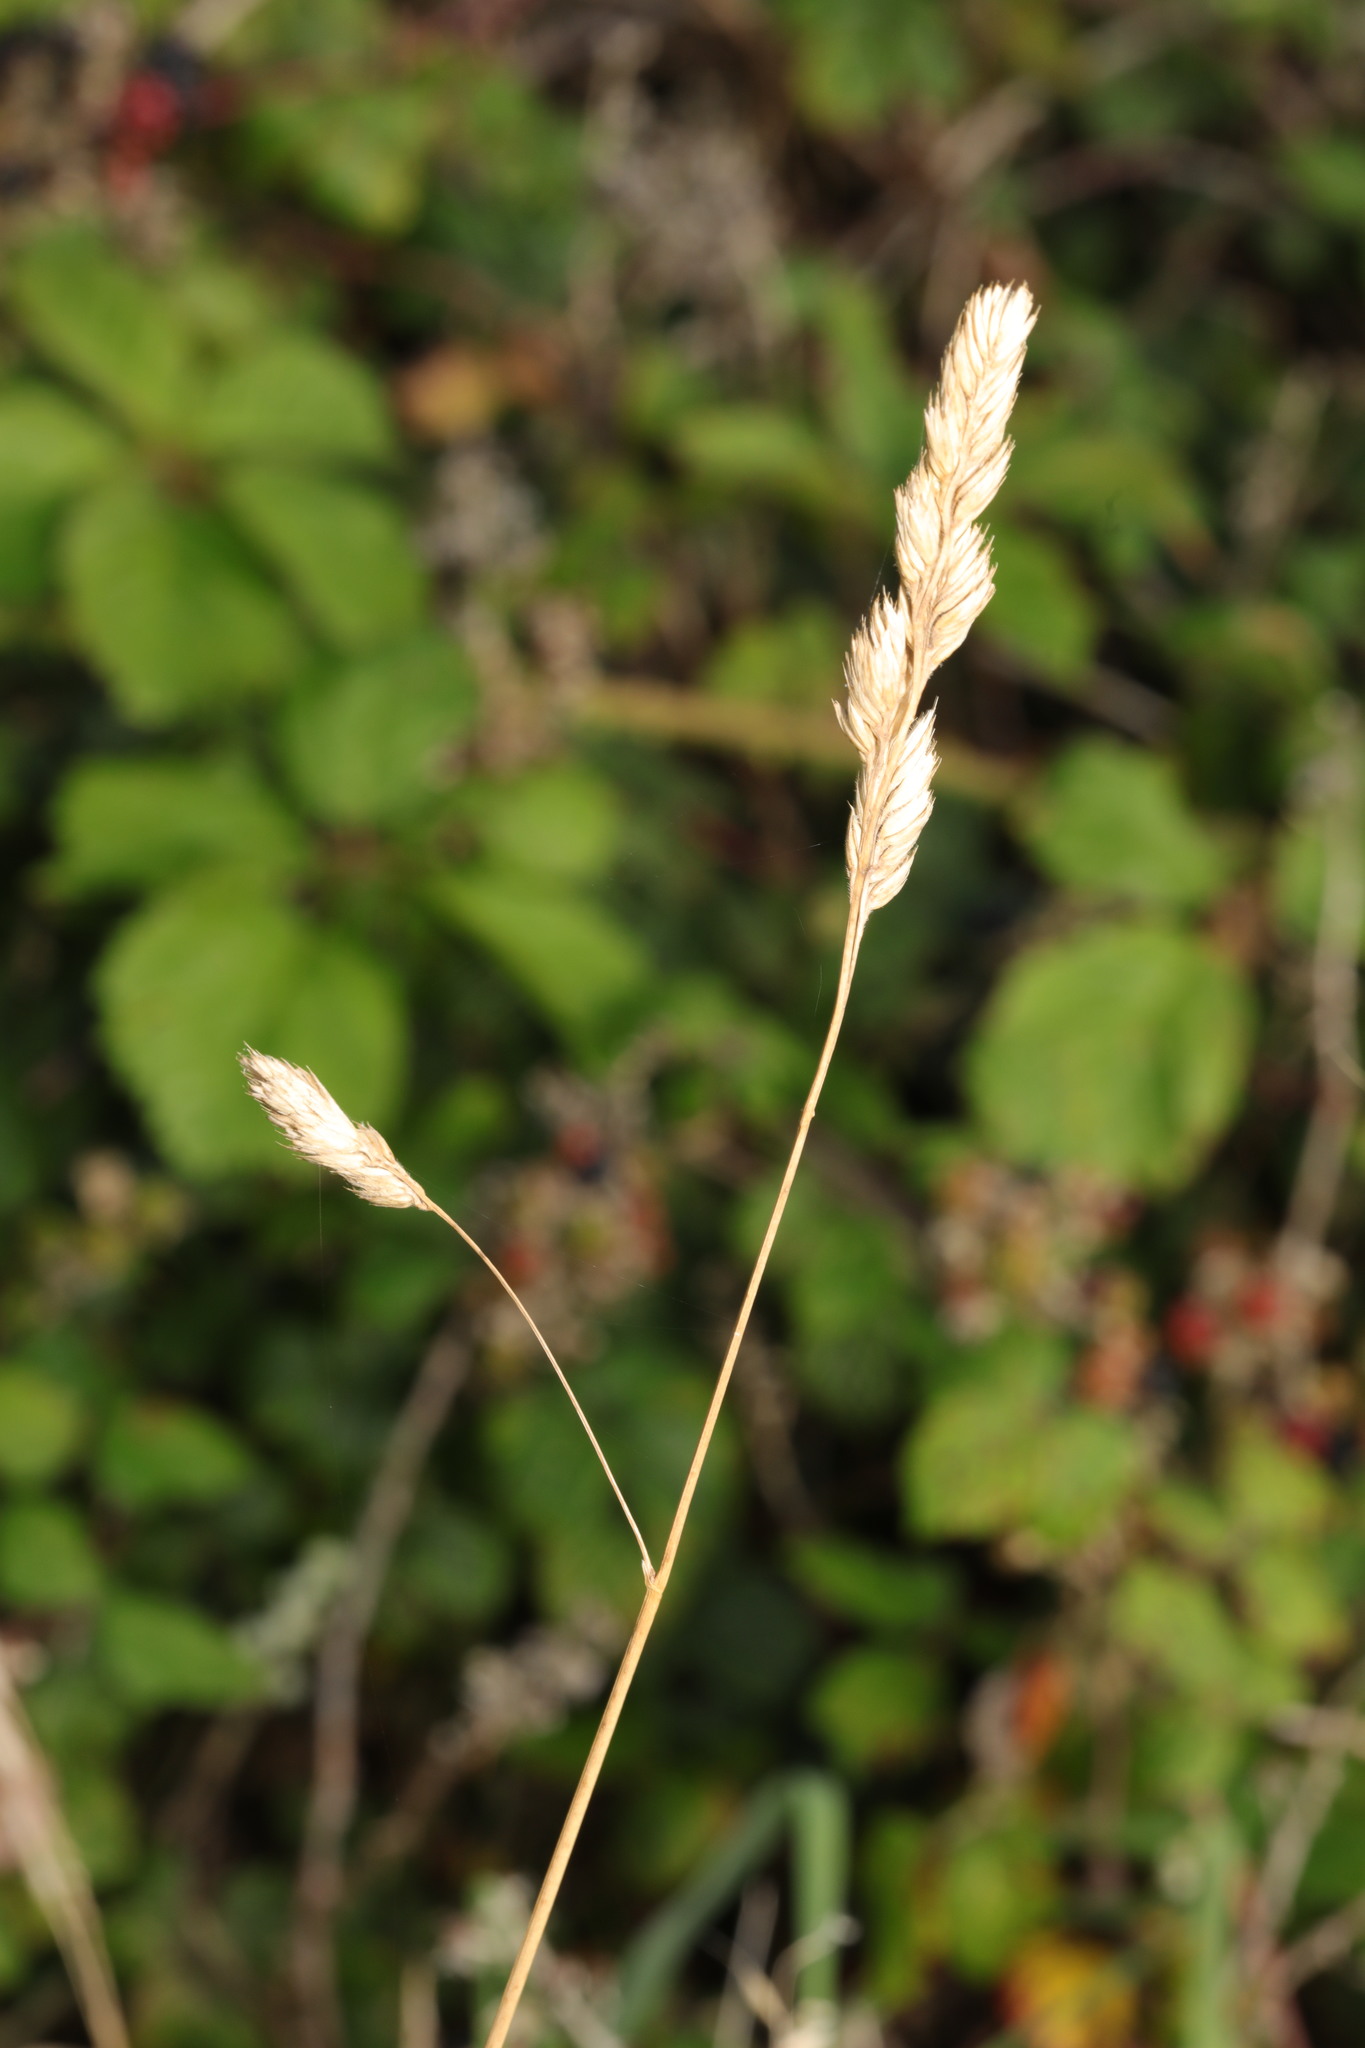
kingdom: Plantae
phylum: Tracheophyta
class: Liliopsida
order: Poales
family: Poaceae
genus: Dactylis
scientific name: Dactylis glomerata
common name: Orchardgrass
